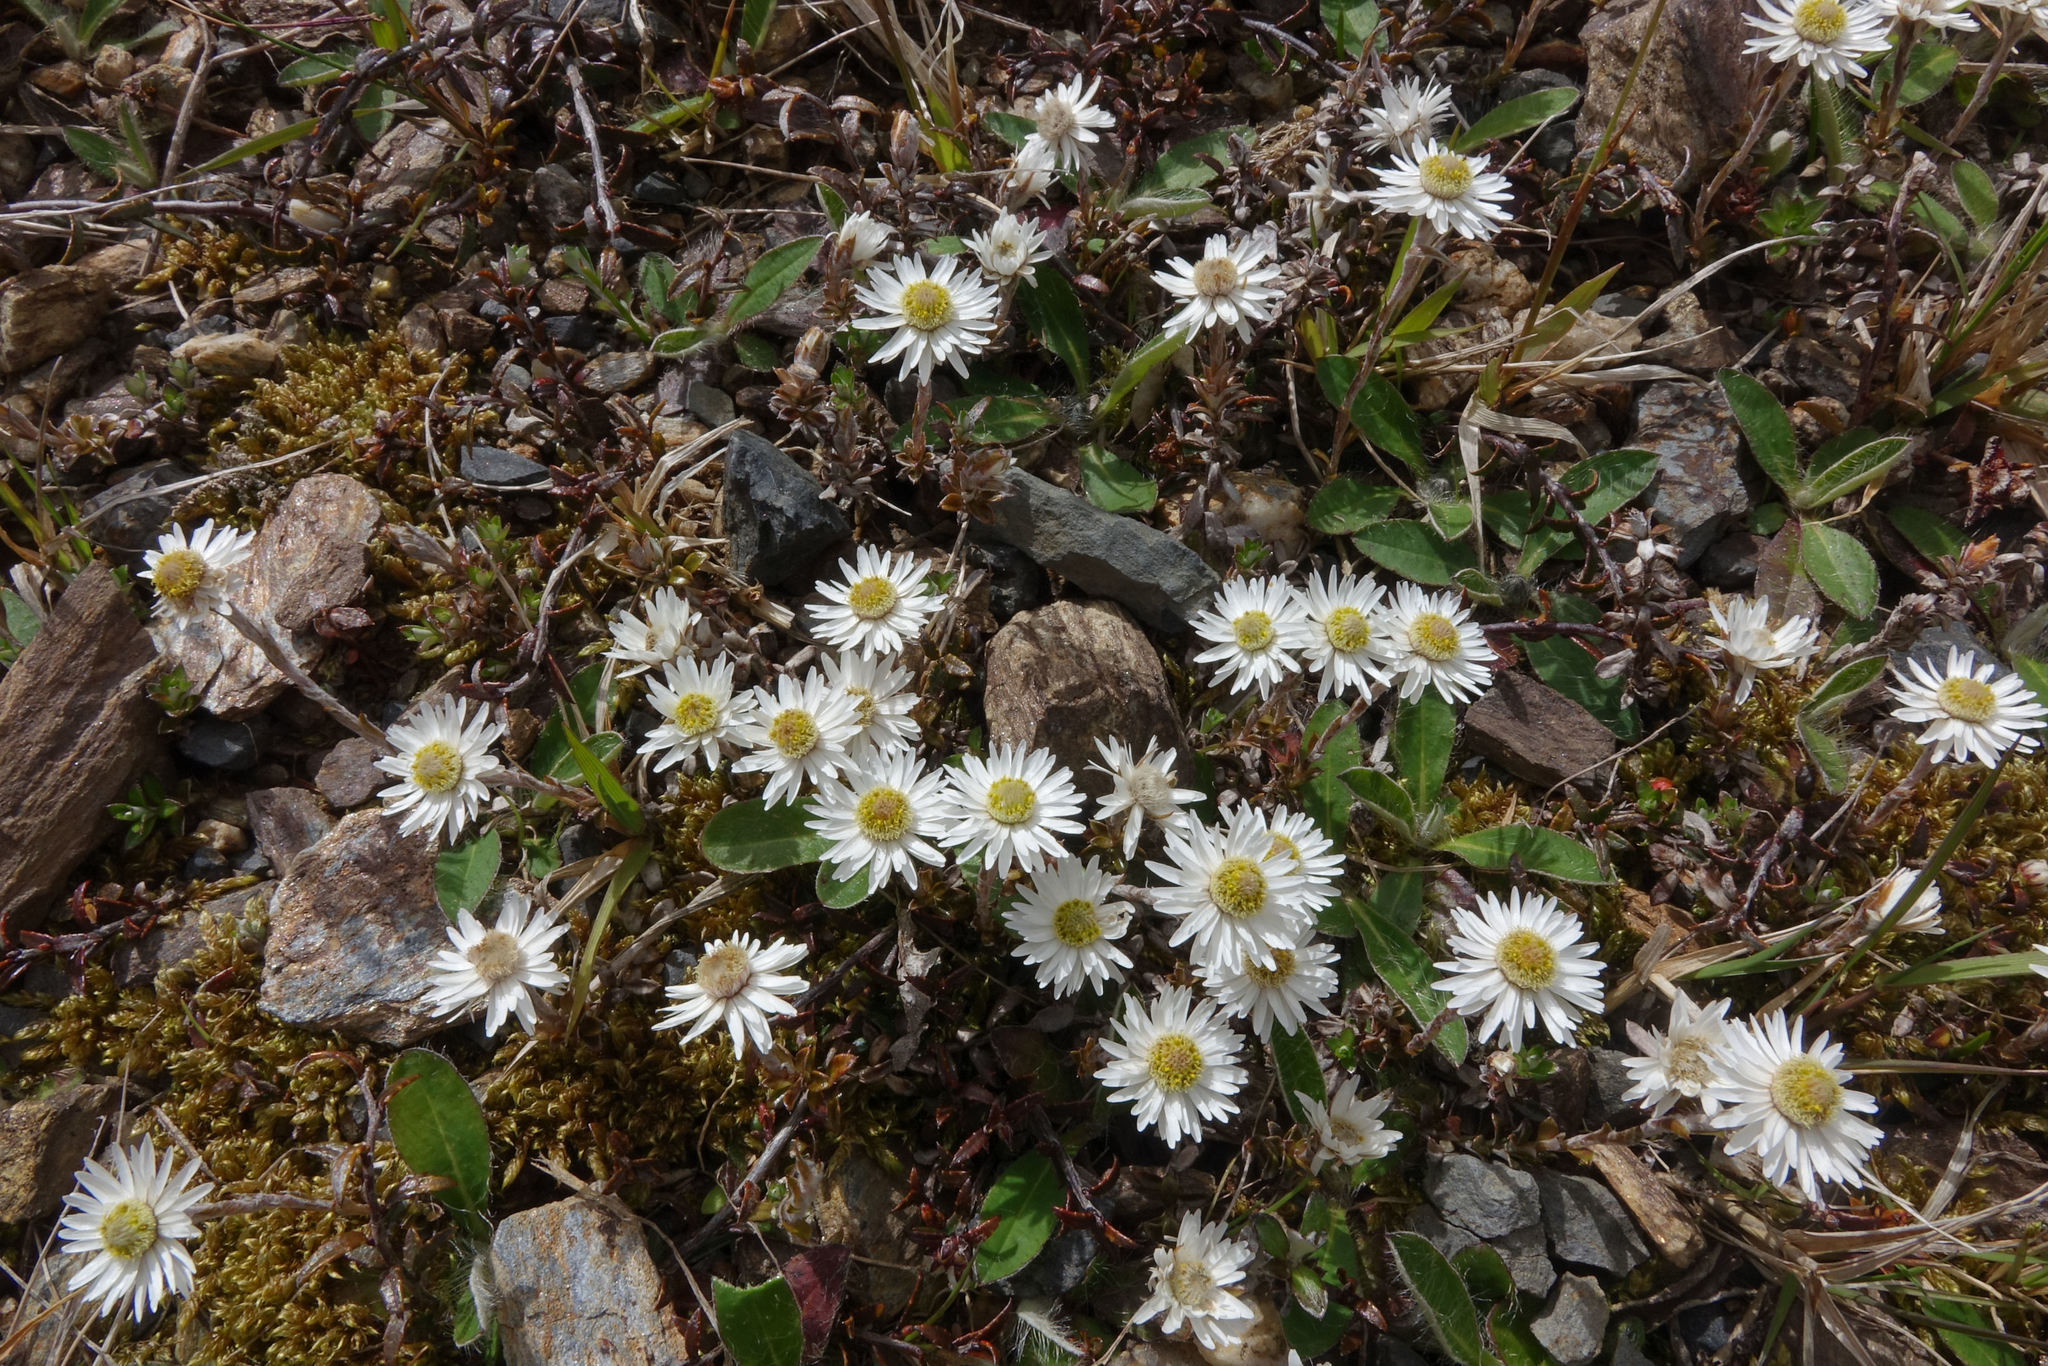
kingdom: Plantae
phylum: Tracheophyta
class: Magnoliopsida
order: Asterales
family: Asteraceae
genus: Anaphalioides
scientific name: Anaphalioides bellidioides
